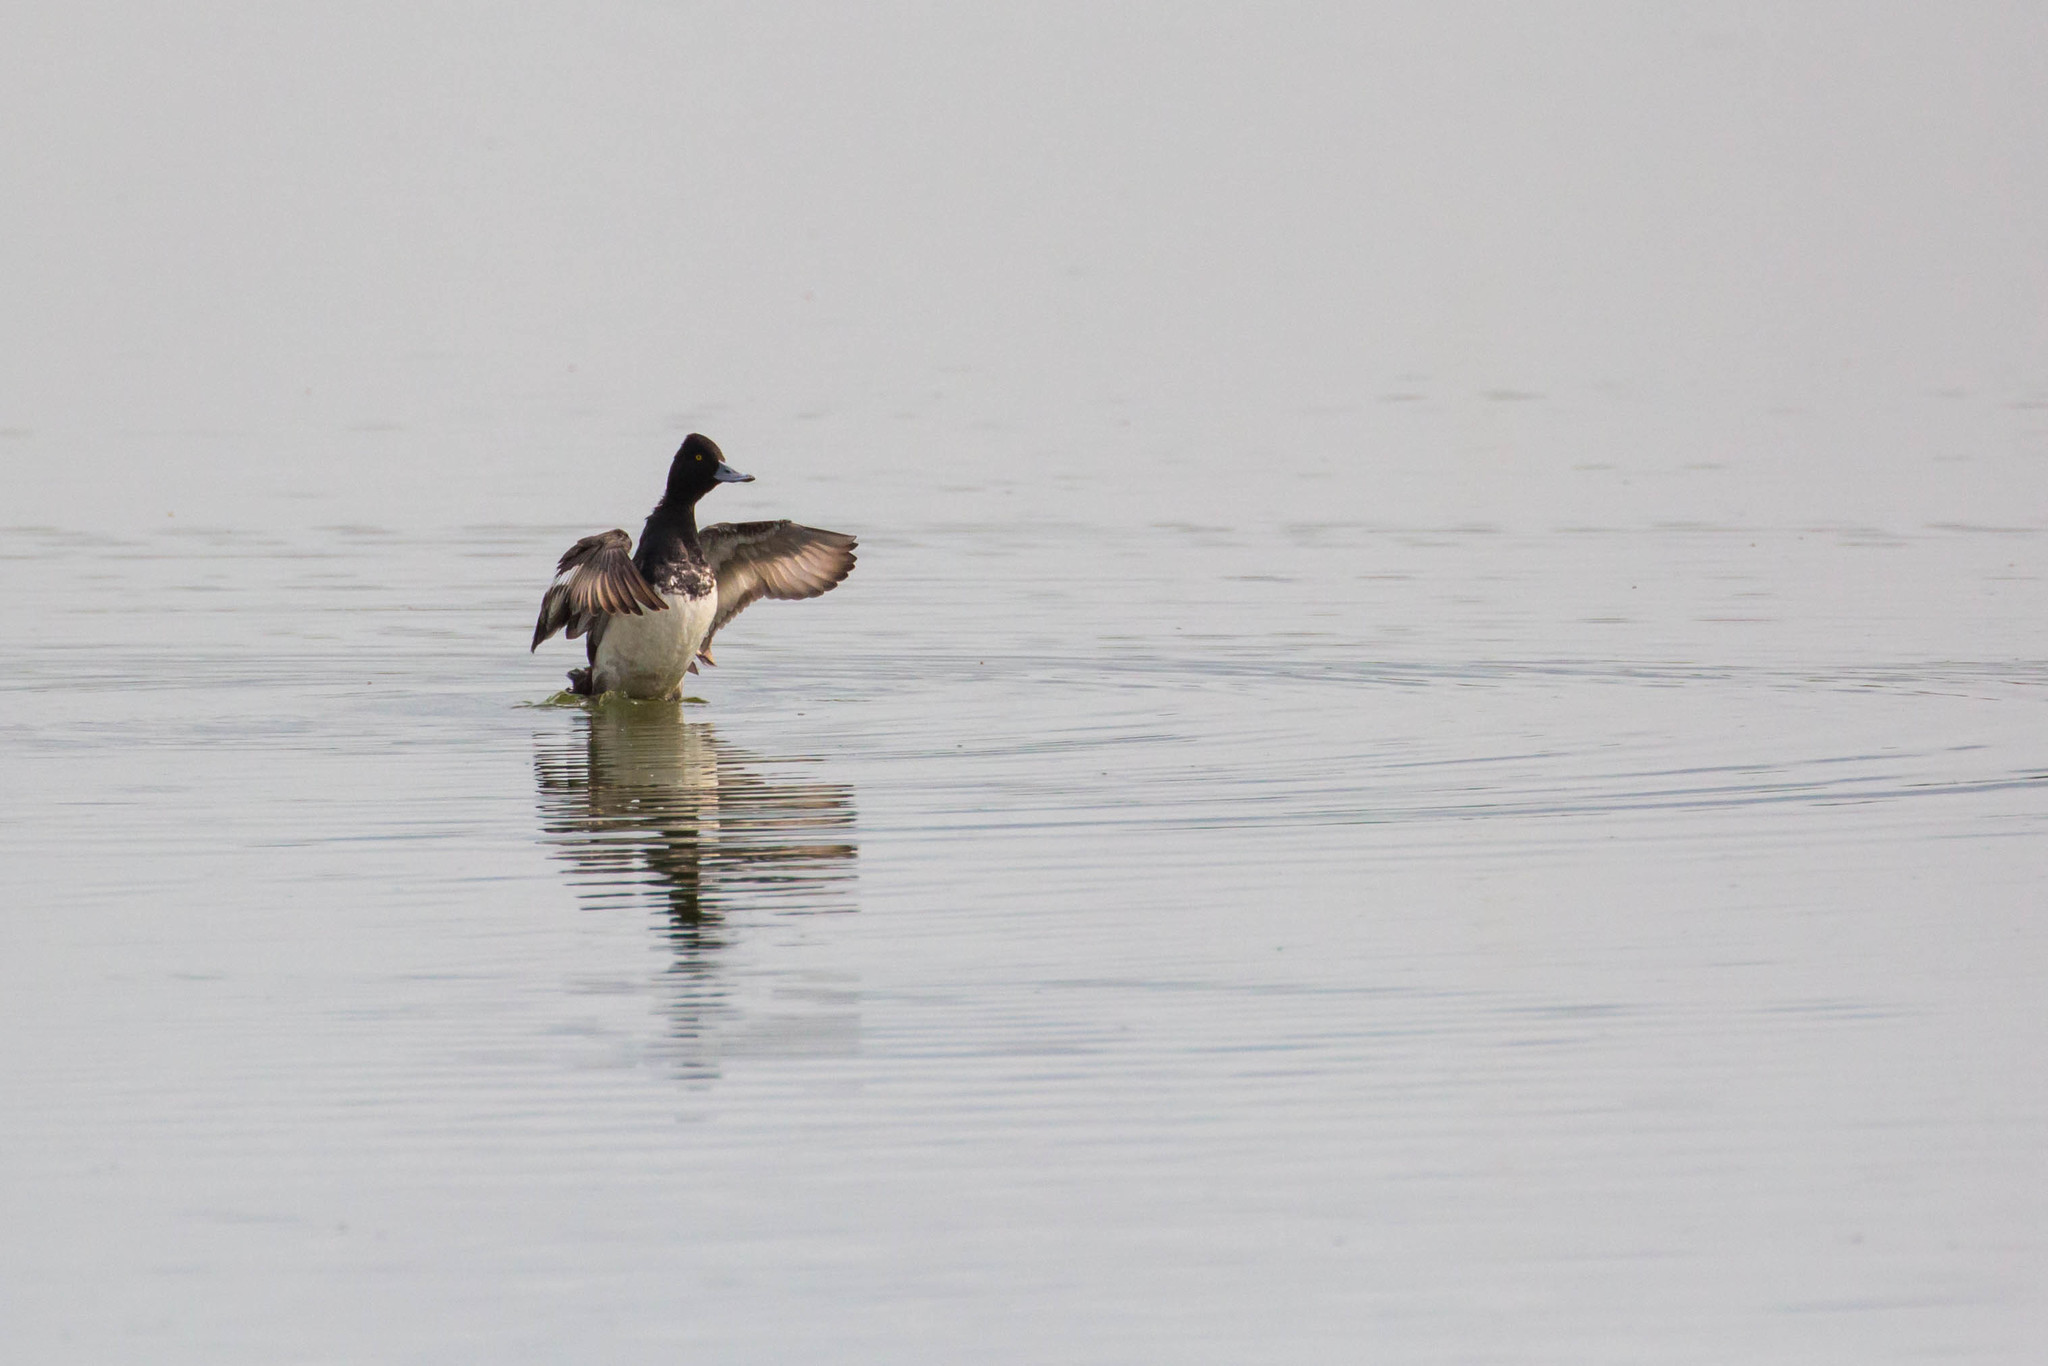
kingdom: Animalia
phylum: Chordata
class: Aves
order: Anseriformes
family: Anatidae
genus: Aythya
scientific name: Aythya affinis
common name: Lesser scaup
